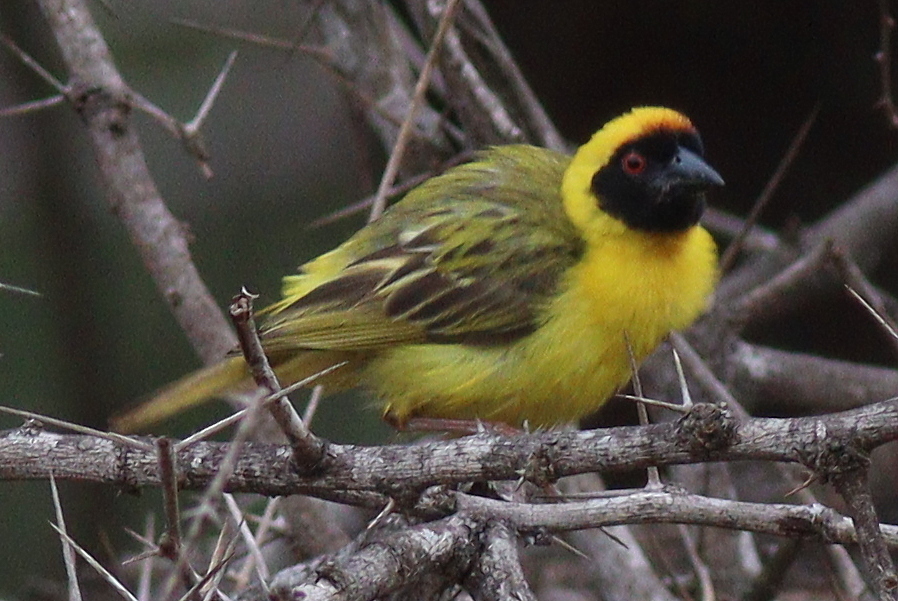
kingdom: Animalia
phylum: Chordata
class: Aves
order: Passeriformes
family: Ploceidae
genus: Ploceus
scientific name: Ploceus vitellinus
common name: Vitelline masked weaver
